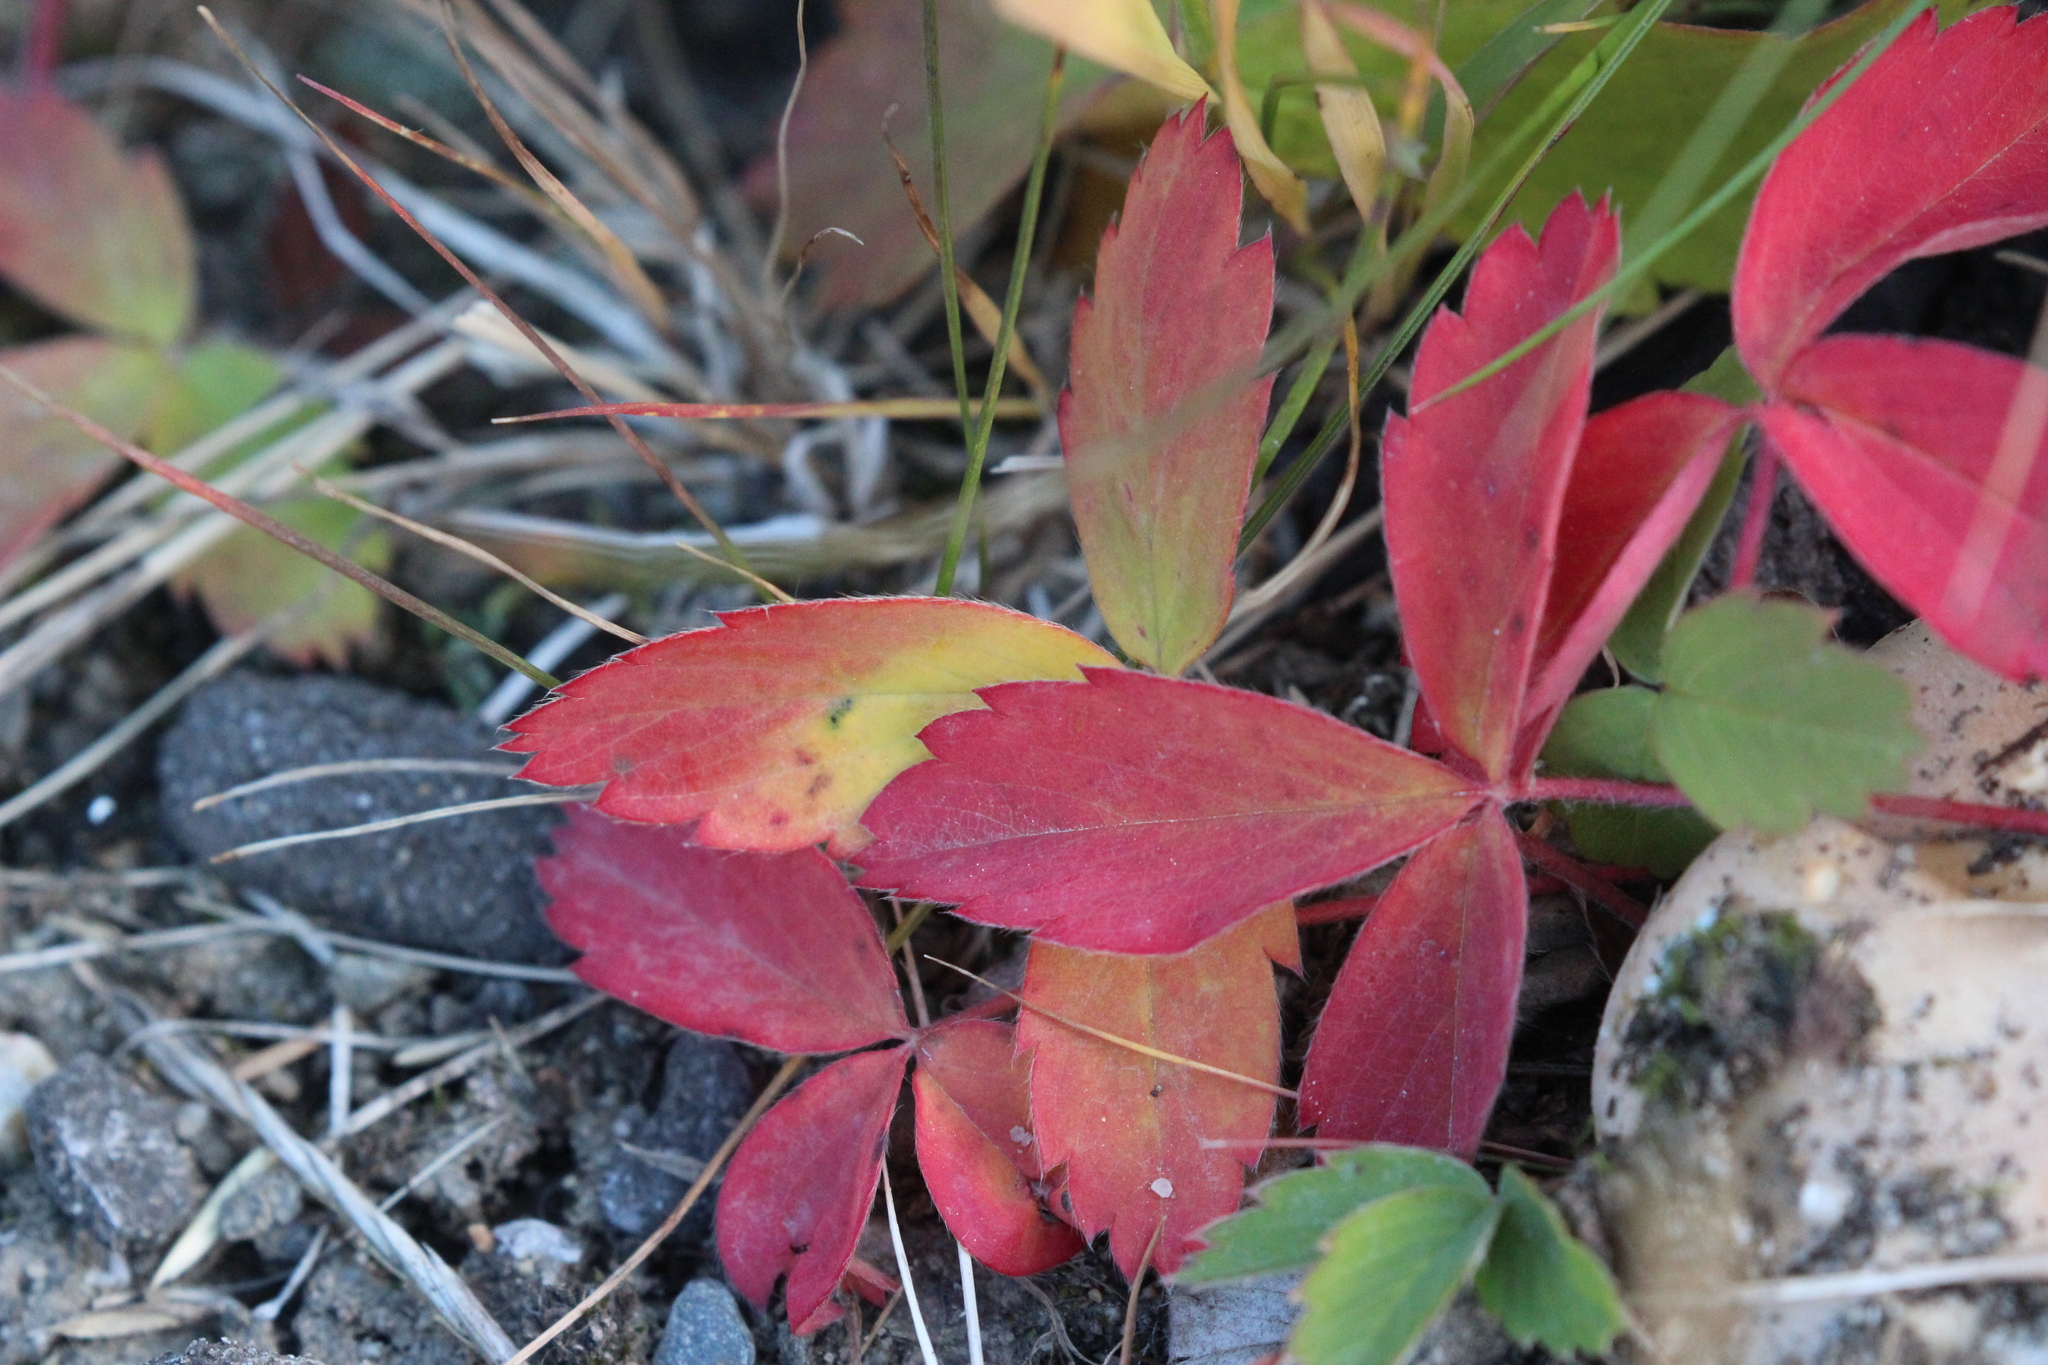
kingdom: Plantae
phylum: Tracheophyta
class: Magnoliopsida
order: Rosales
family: Rosaceae
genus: Fragaria
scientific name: Fragaria virginiana
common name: Thickleaved wild strawberry
